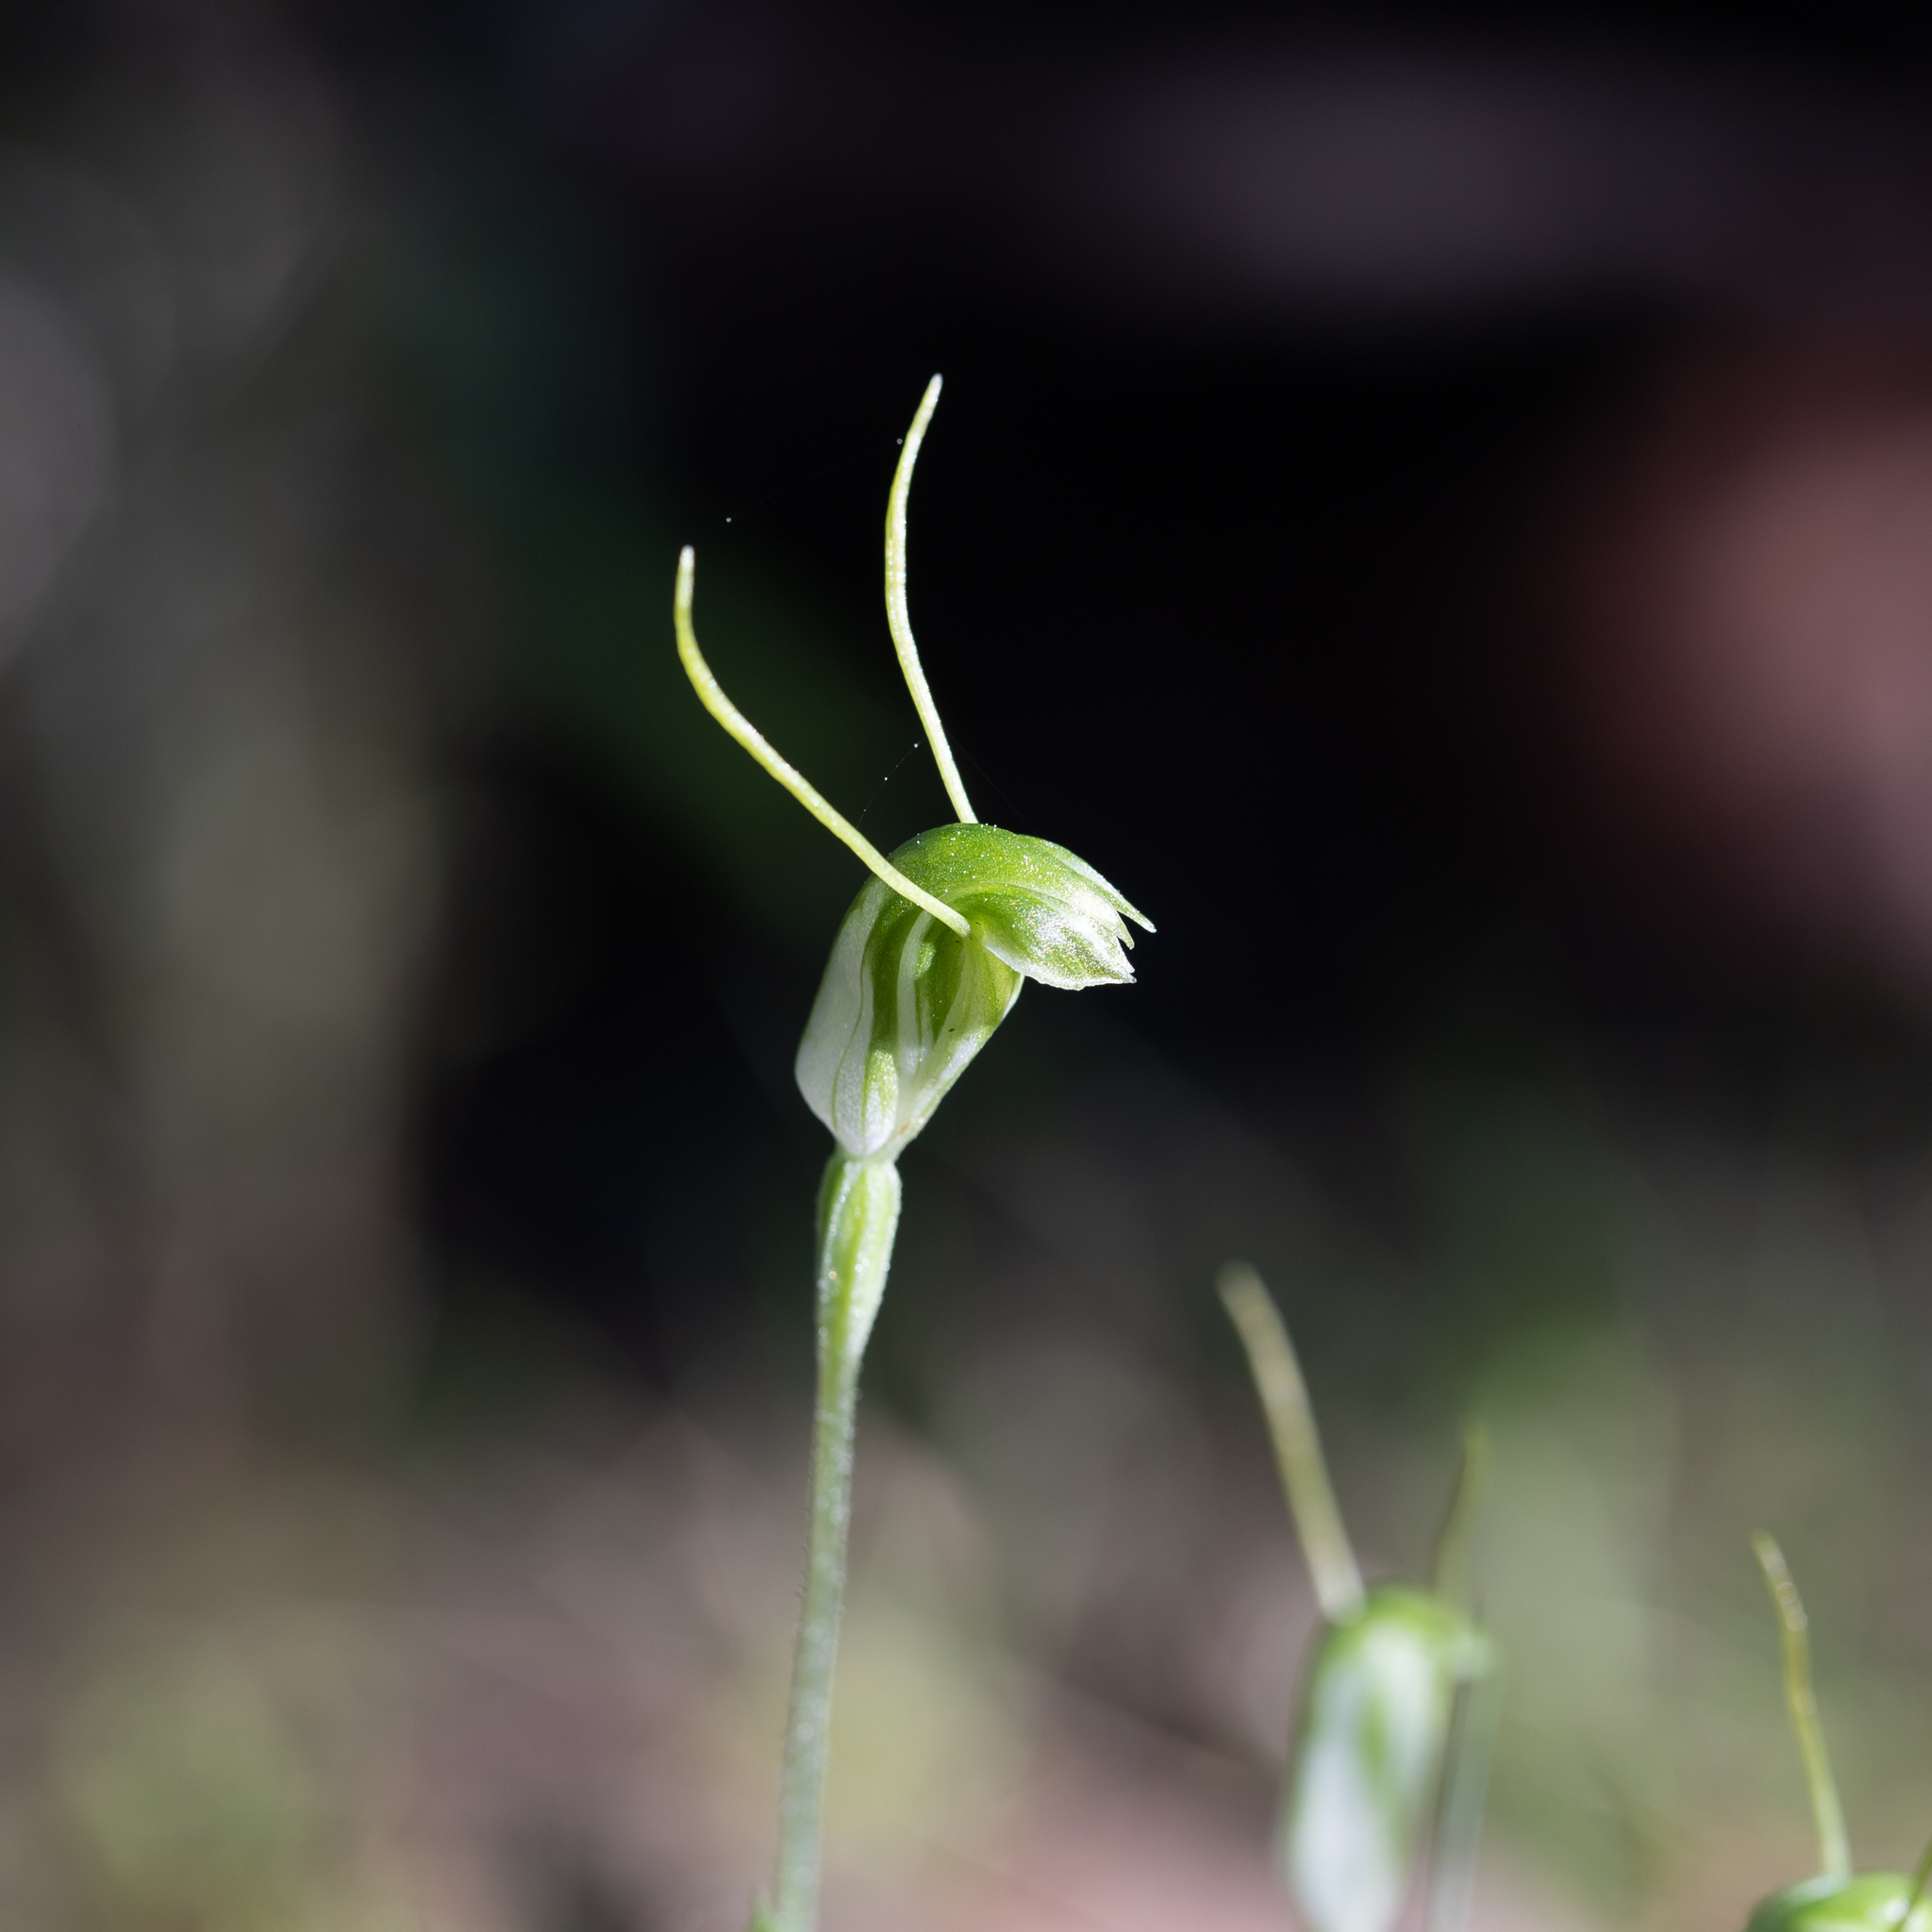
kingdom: Plantae
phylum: Tracheophyta
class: Liliopsida
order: Asparagales
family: Orchidaceae
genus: Pterostylis
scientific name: Pterostylis nana
